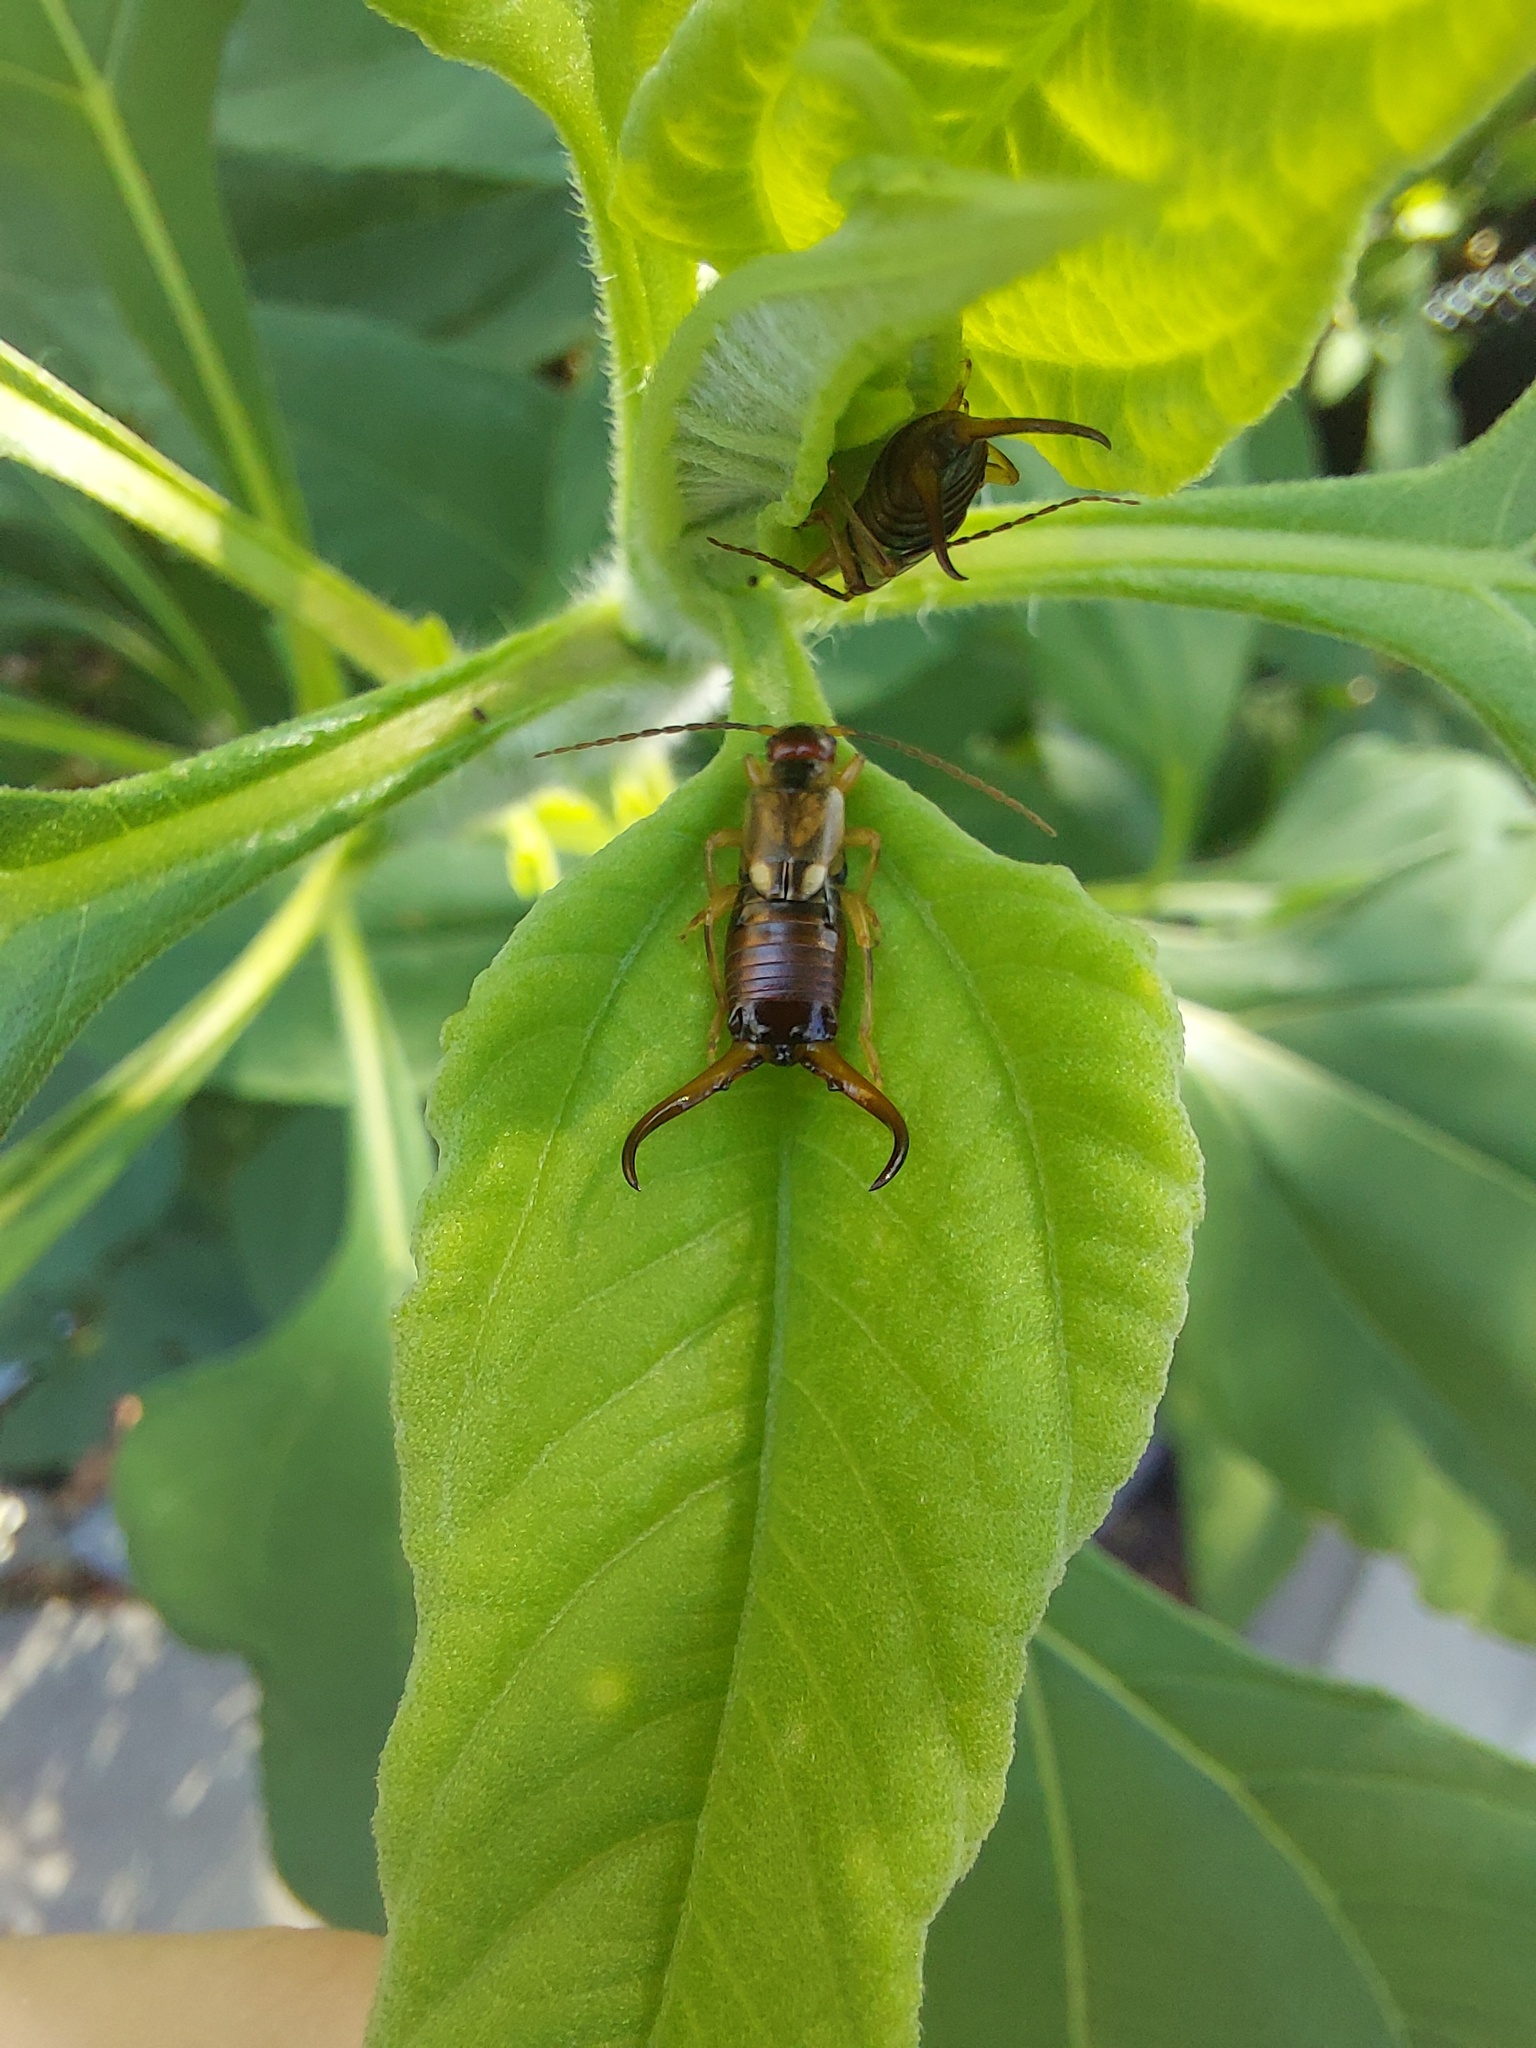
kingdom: Animalia
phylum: Arthropoda
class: Insecta
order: Dermaptera
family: Forficulidae
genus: Forficula
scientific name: Forficula
